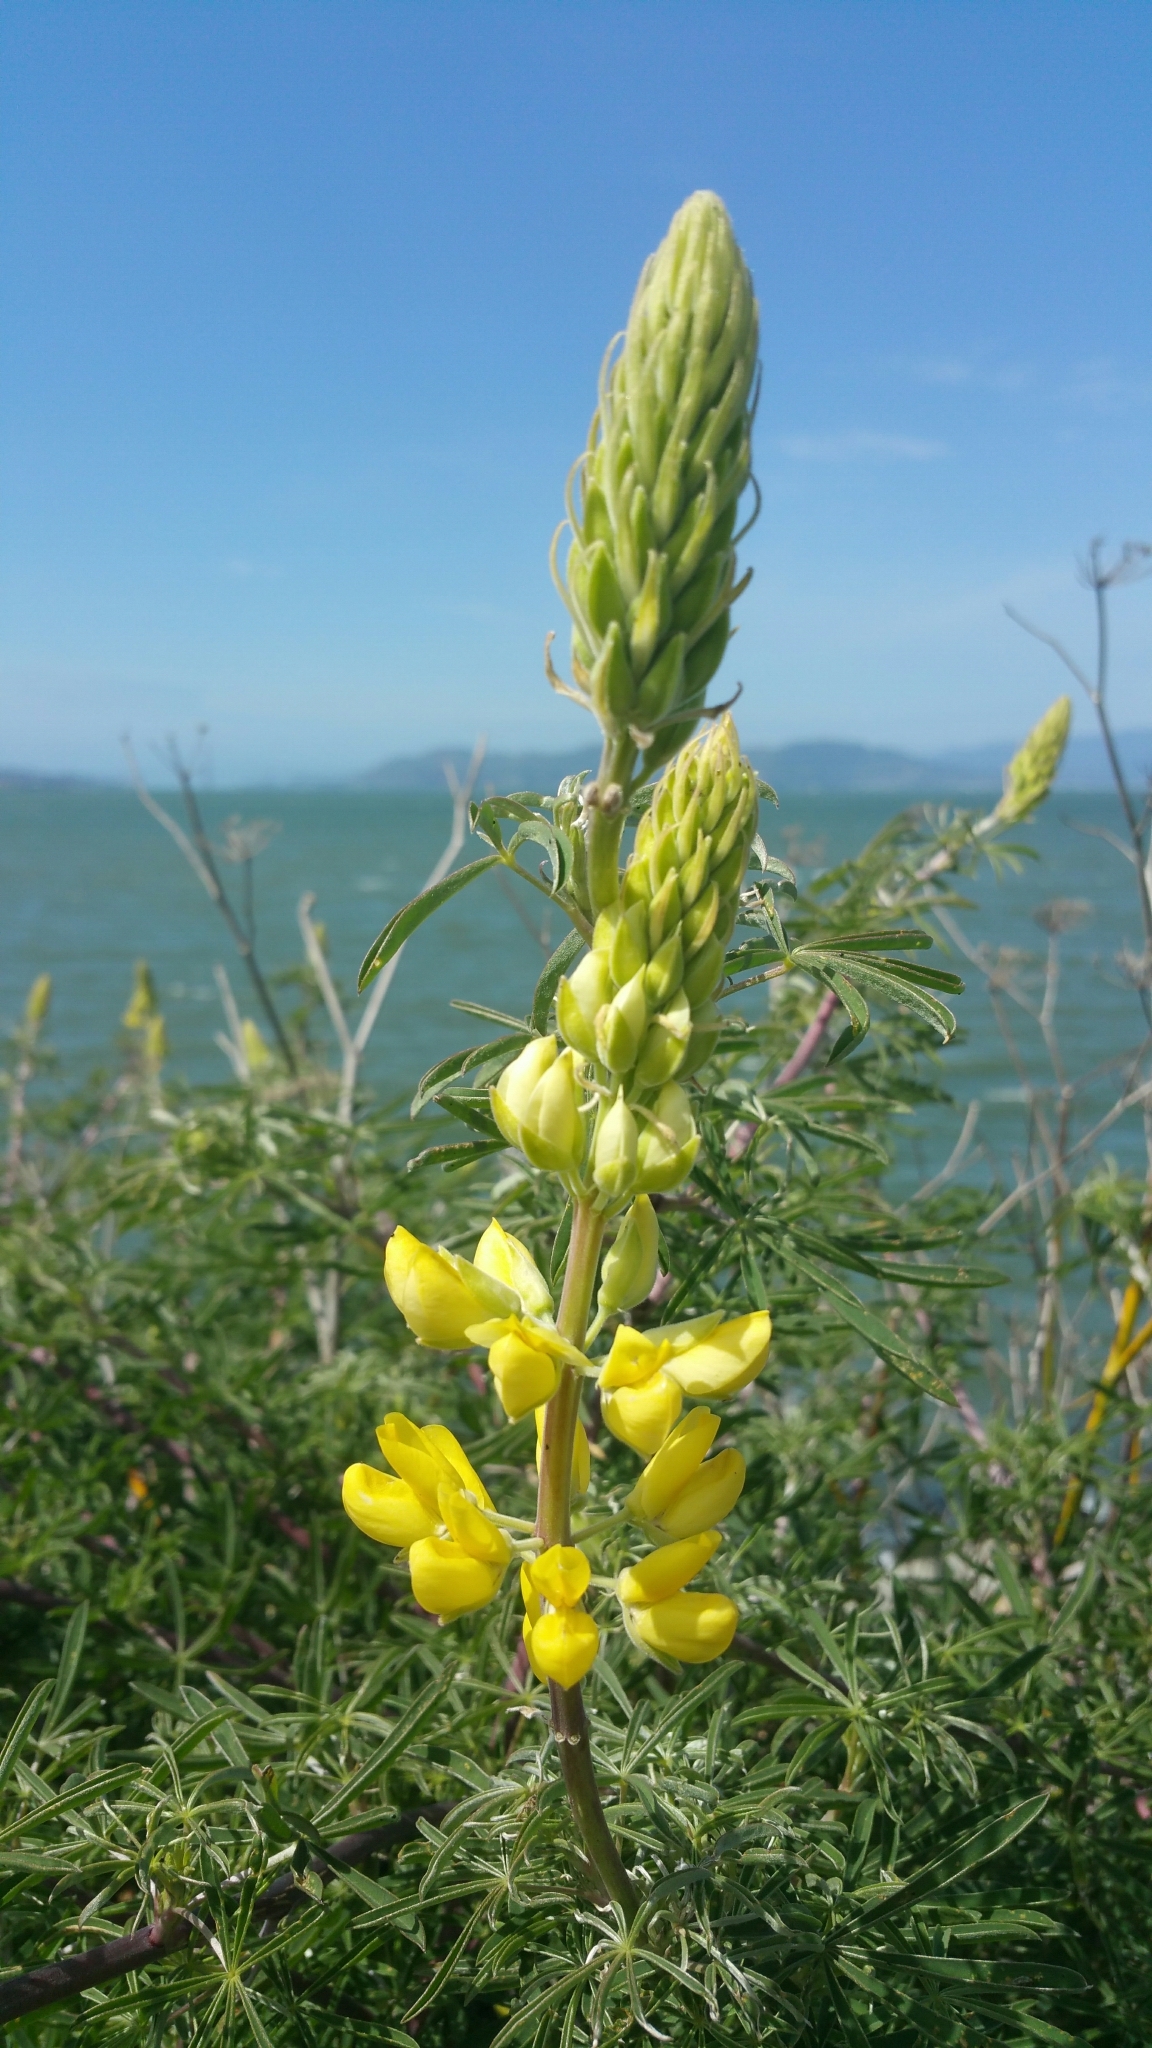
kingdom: Plantae
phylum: Tracheophyta
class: Magnoliopsida
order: Fabales
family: Fabaceae
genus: Lupinus
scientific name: Lupinus arboreus
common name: Yellow bush lupine
